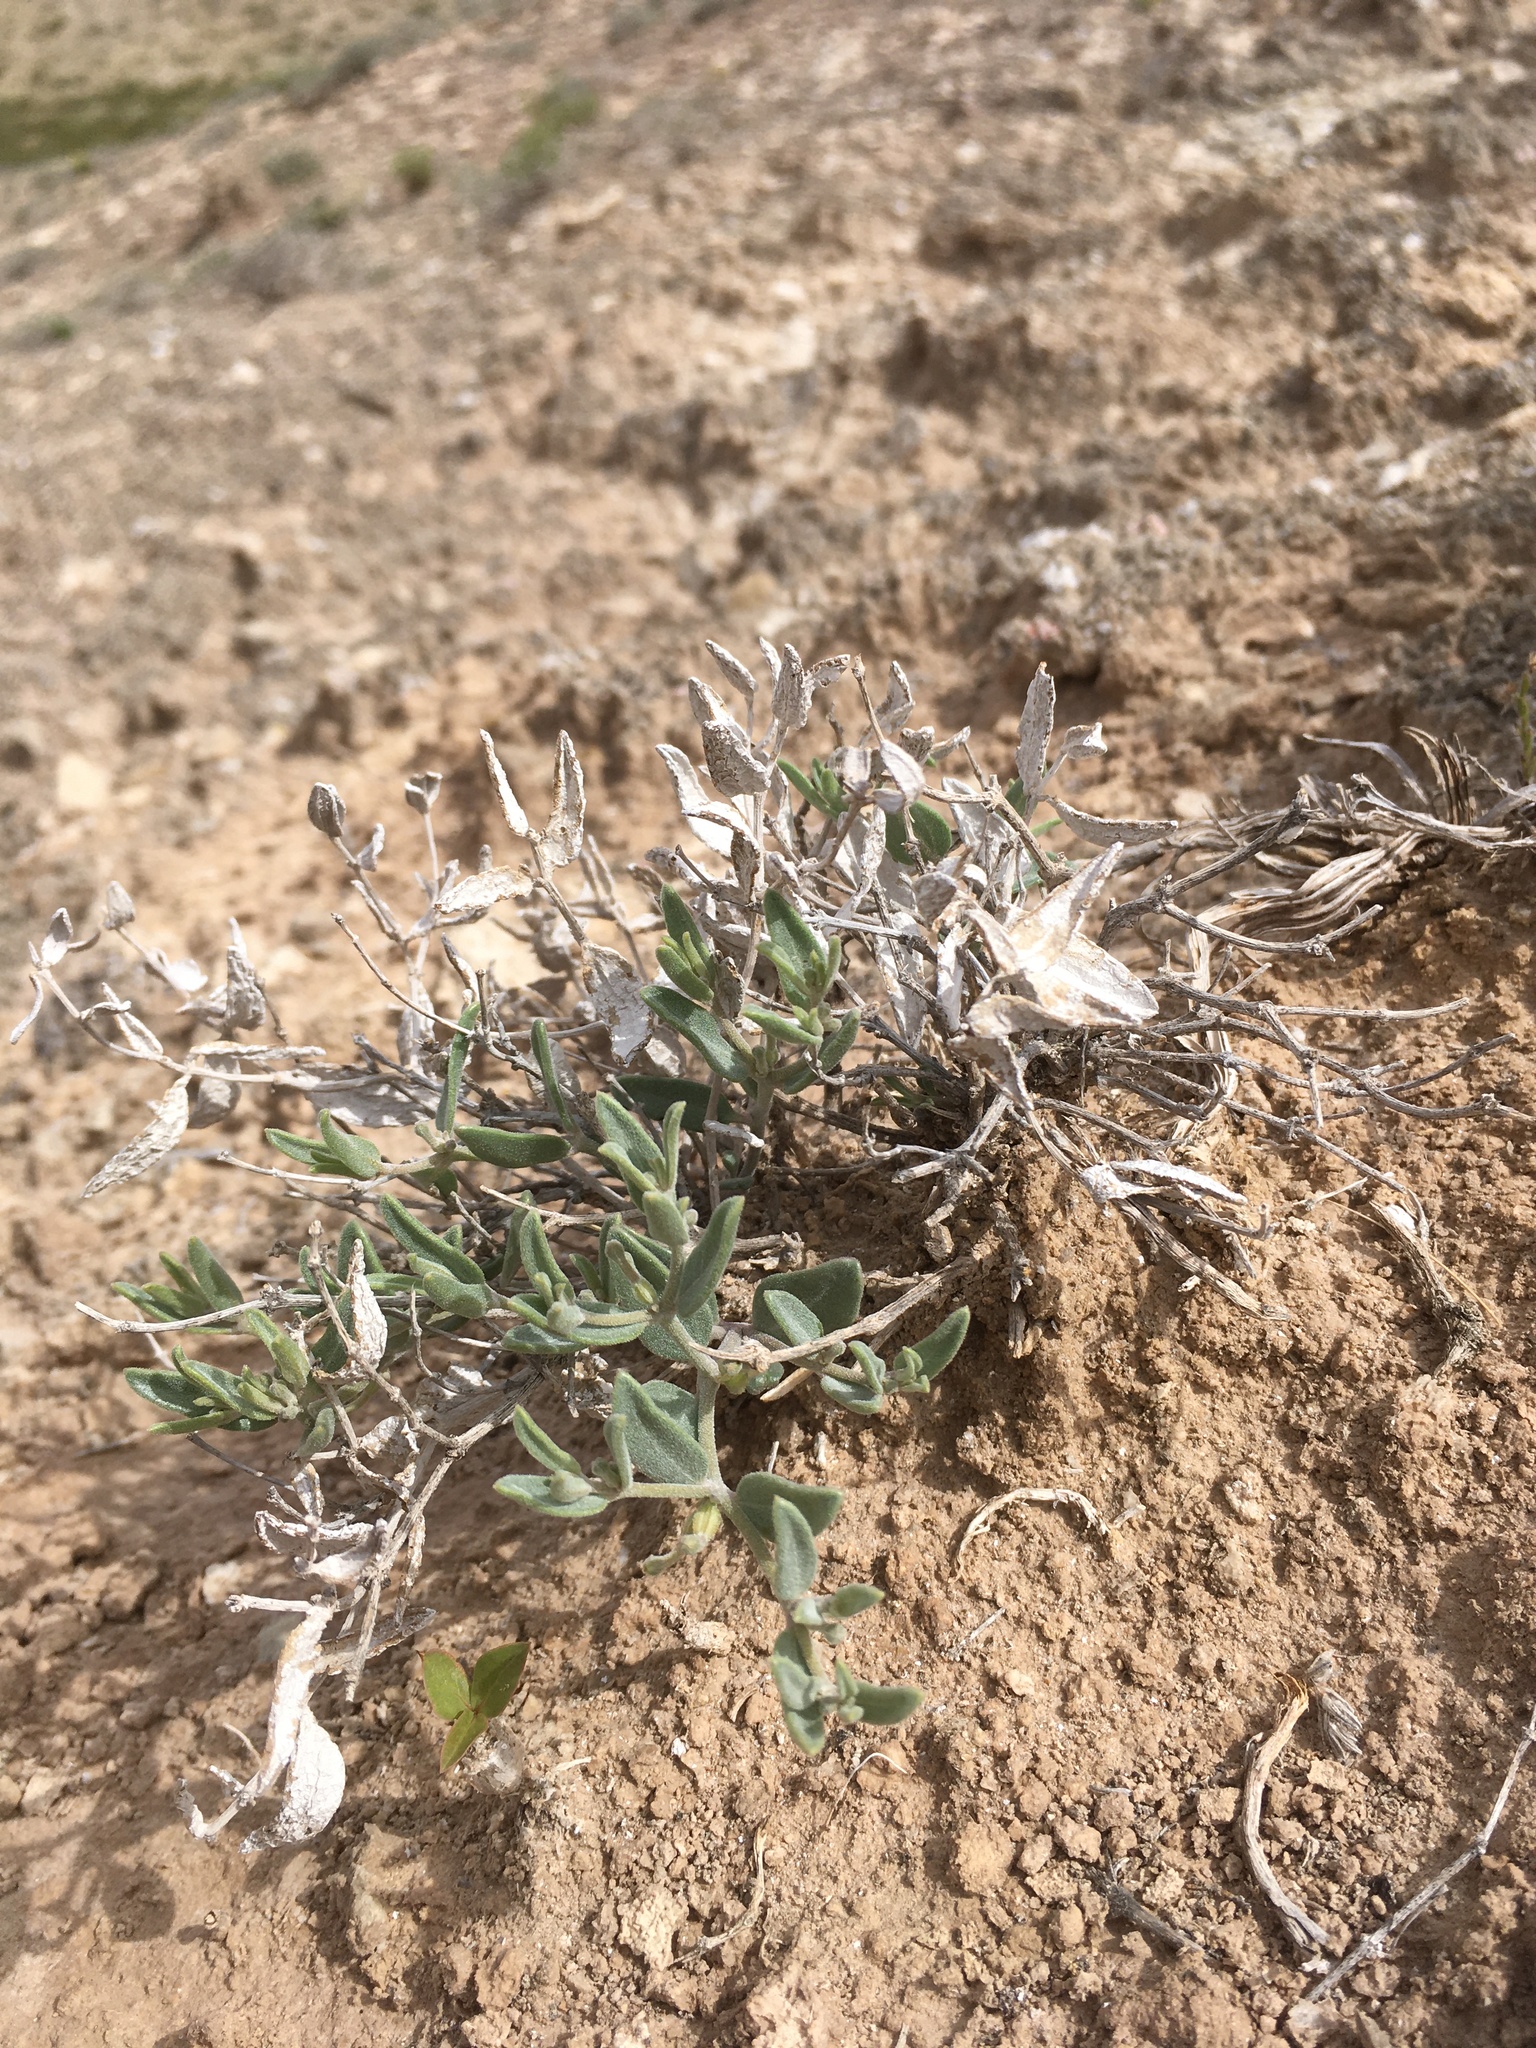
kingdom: Plantae
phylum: Tracheophyta
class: Magnoliopsida
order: Caryophyllales
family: Nyctaginaceae
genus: Acleisanthes
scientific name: Acleisanthes lanceolata
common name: Gypsum moonpod
